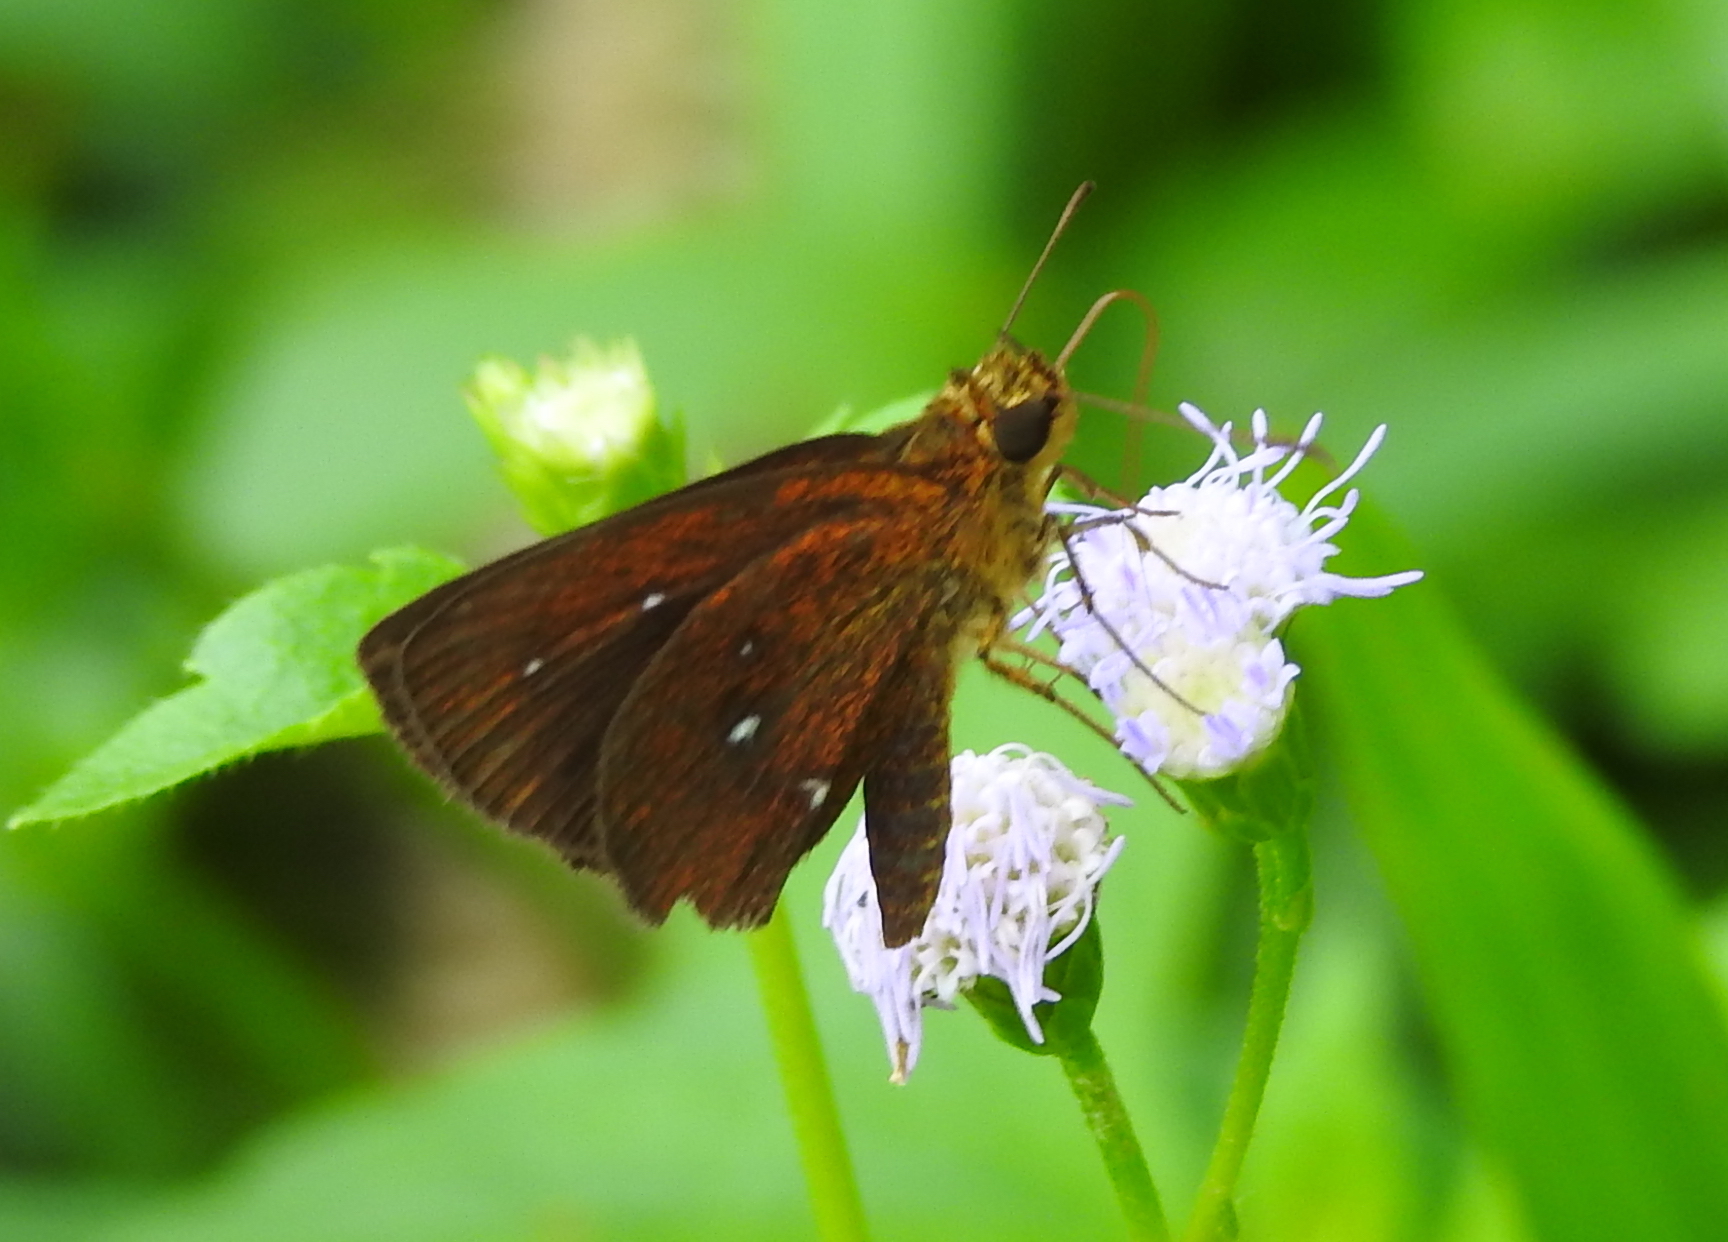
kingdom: Animalia
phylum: Arthropoda
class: Insecta
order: Lepidoptera
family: Hesperiidae
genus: Iambrix
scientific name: Iambrix salsala
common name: Chestnut bob
